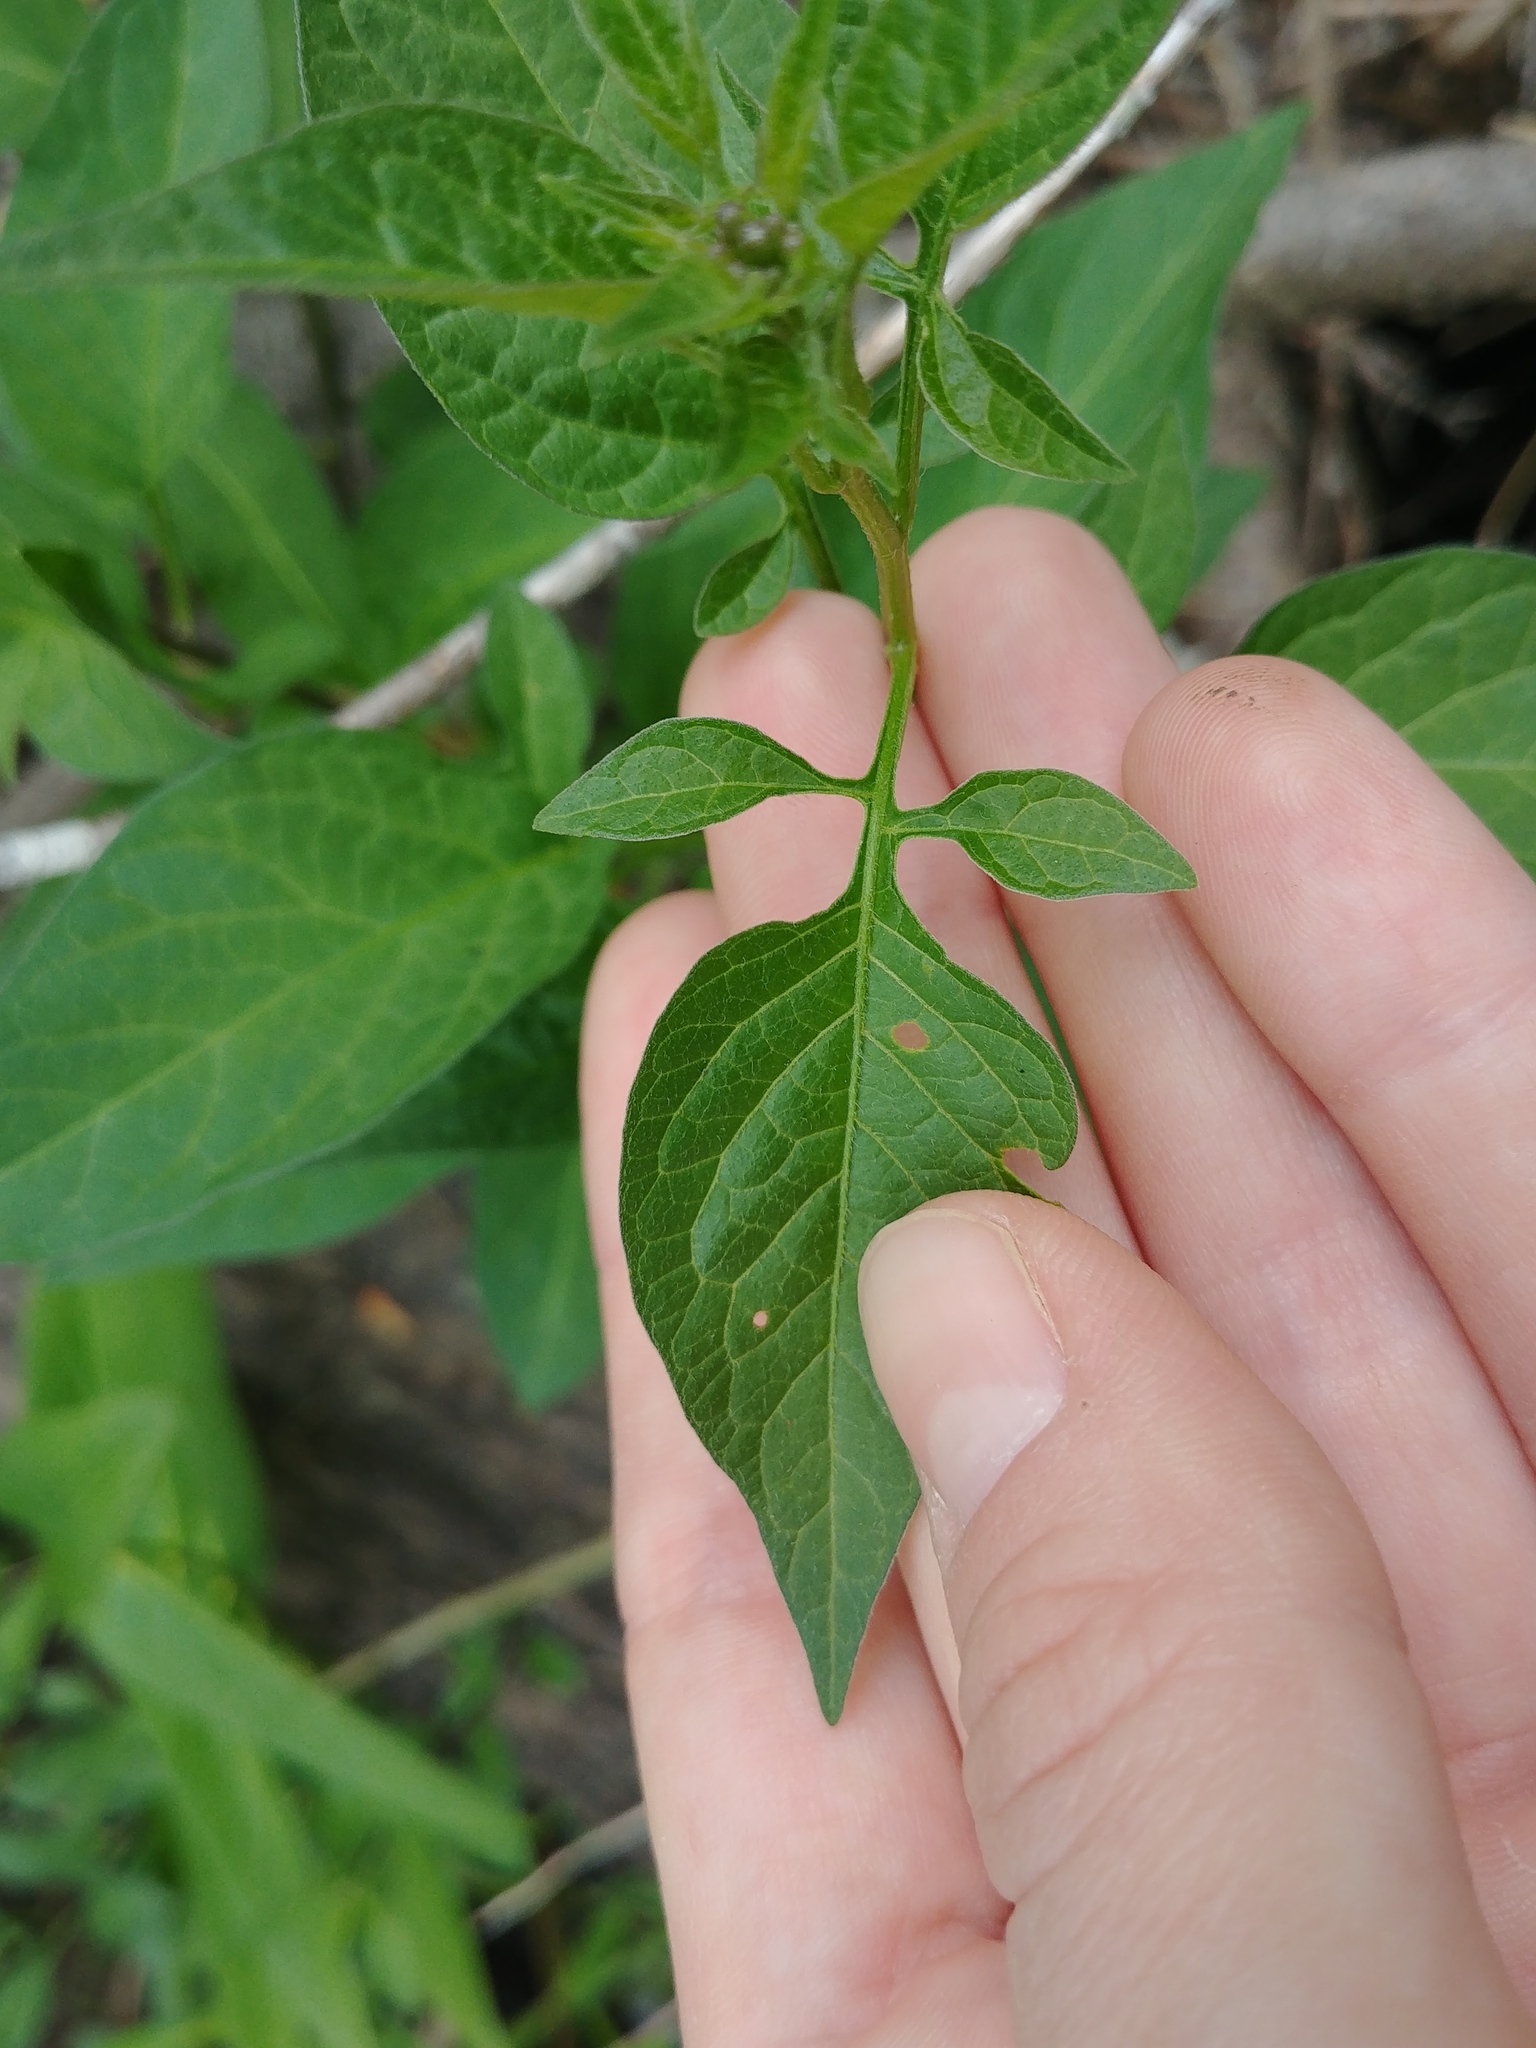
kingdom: Plantae
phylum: Tracheophyta
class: Magnoliopsida
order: Solanales
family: Solanaceae
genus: Solanum
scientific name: Solanum dulcamara
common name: Climbing nightshade
